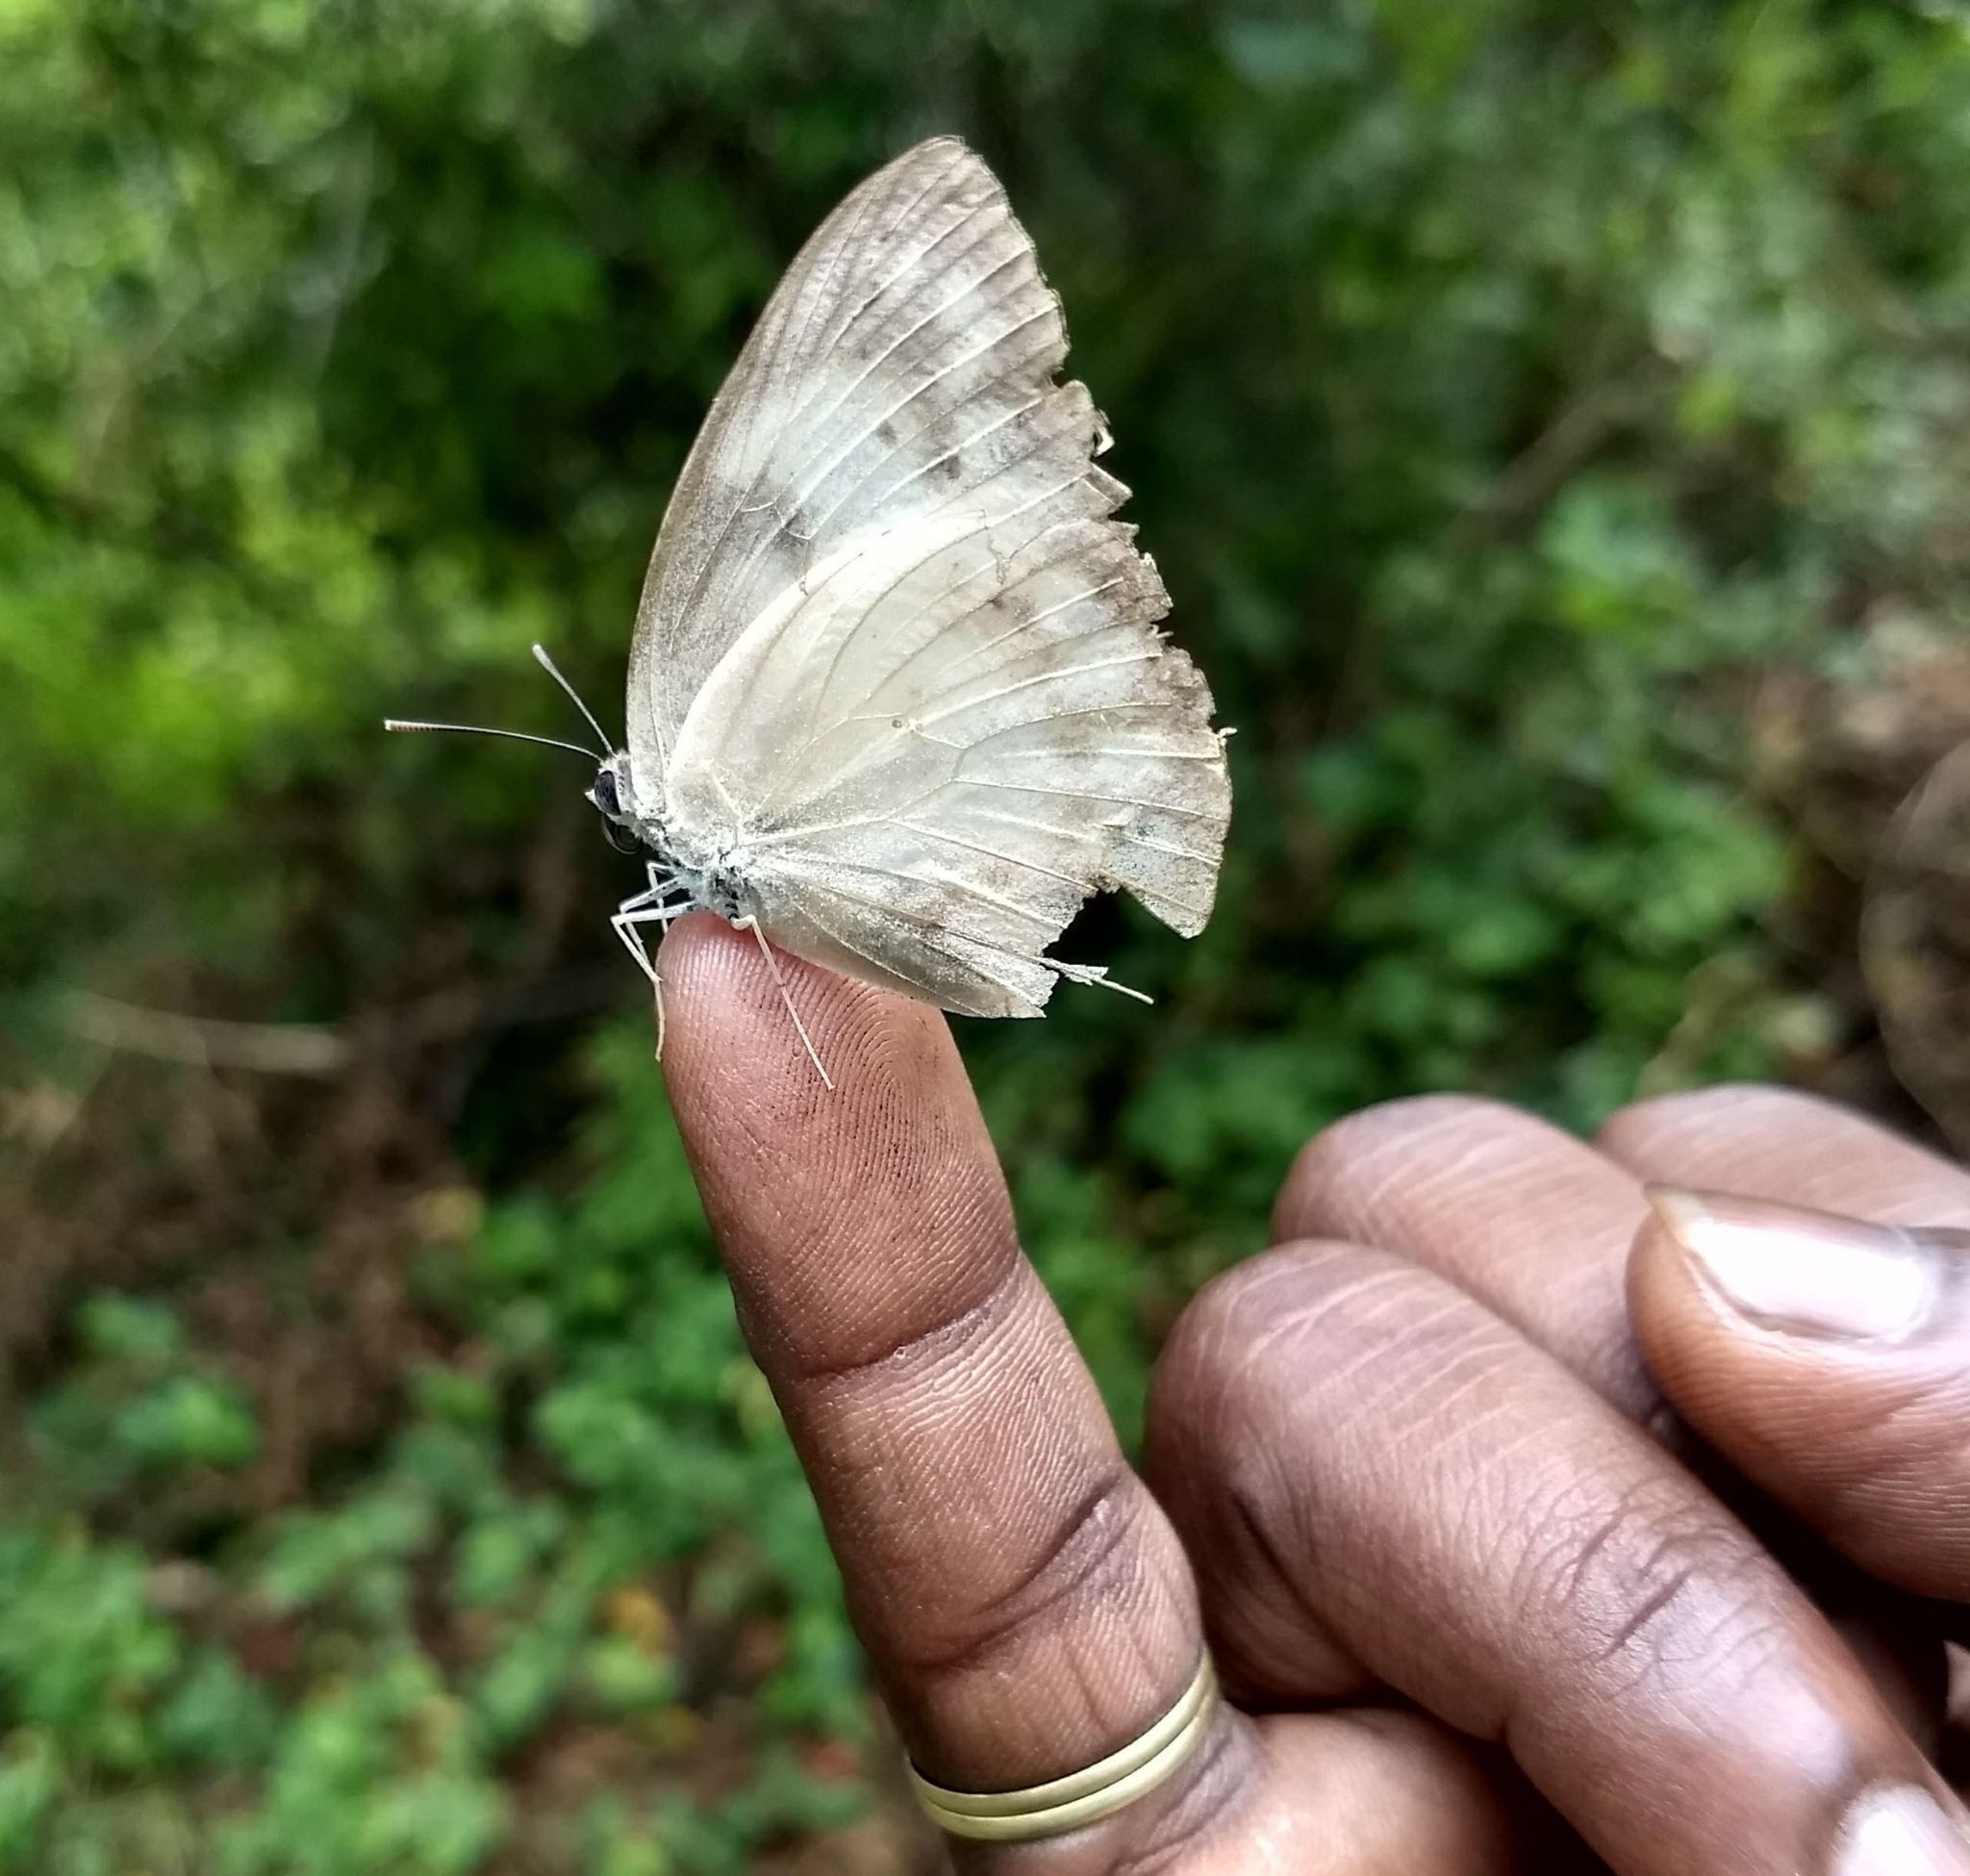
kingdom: Animalia
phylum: Arthropoda
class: Insecta
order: Lepidoptera
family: Pieridae
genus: Catopsilia
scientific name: Catopsilia pomona
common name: Common emigrant
